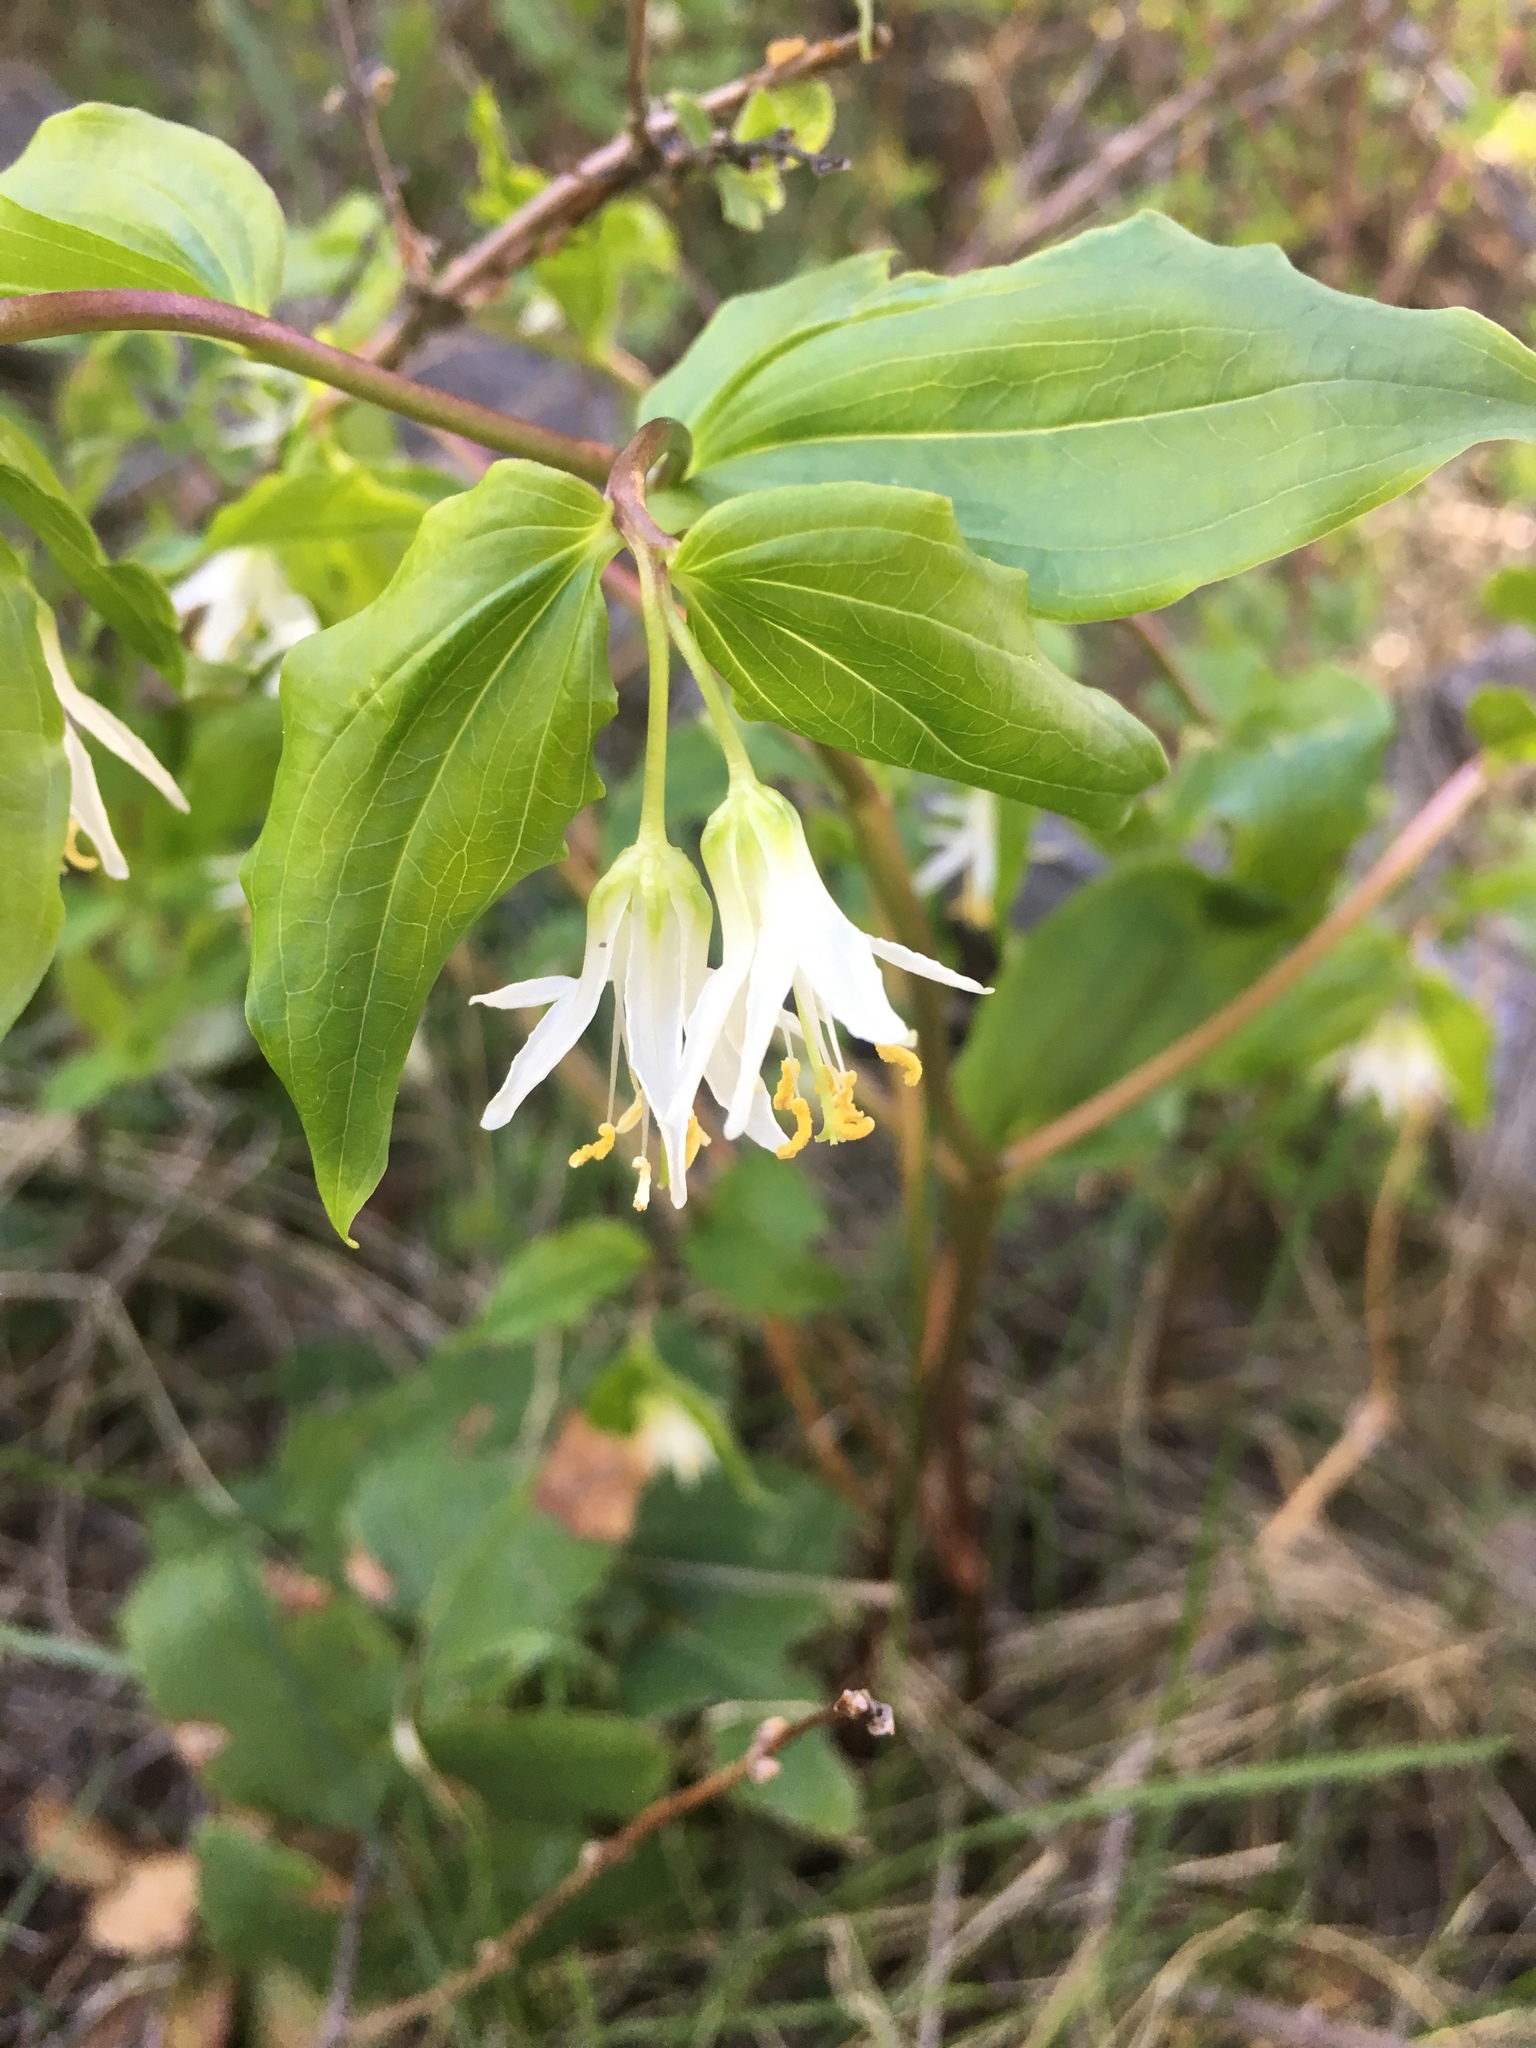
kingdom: Plantae
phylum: Tracheophyta
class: Liliopsida
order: Liliales
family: Liliaceae
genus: Prosartes
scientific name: Prosartes trachycarpa
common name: Rough-fruit fairy-bells
